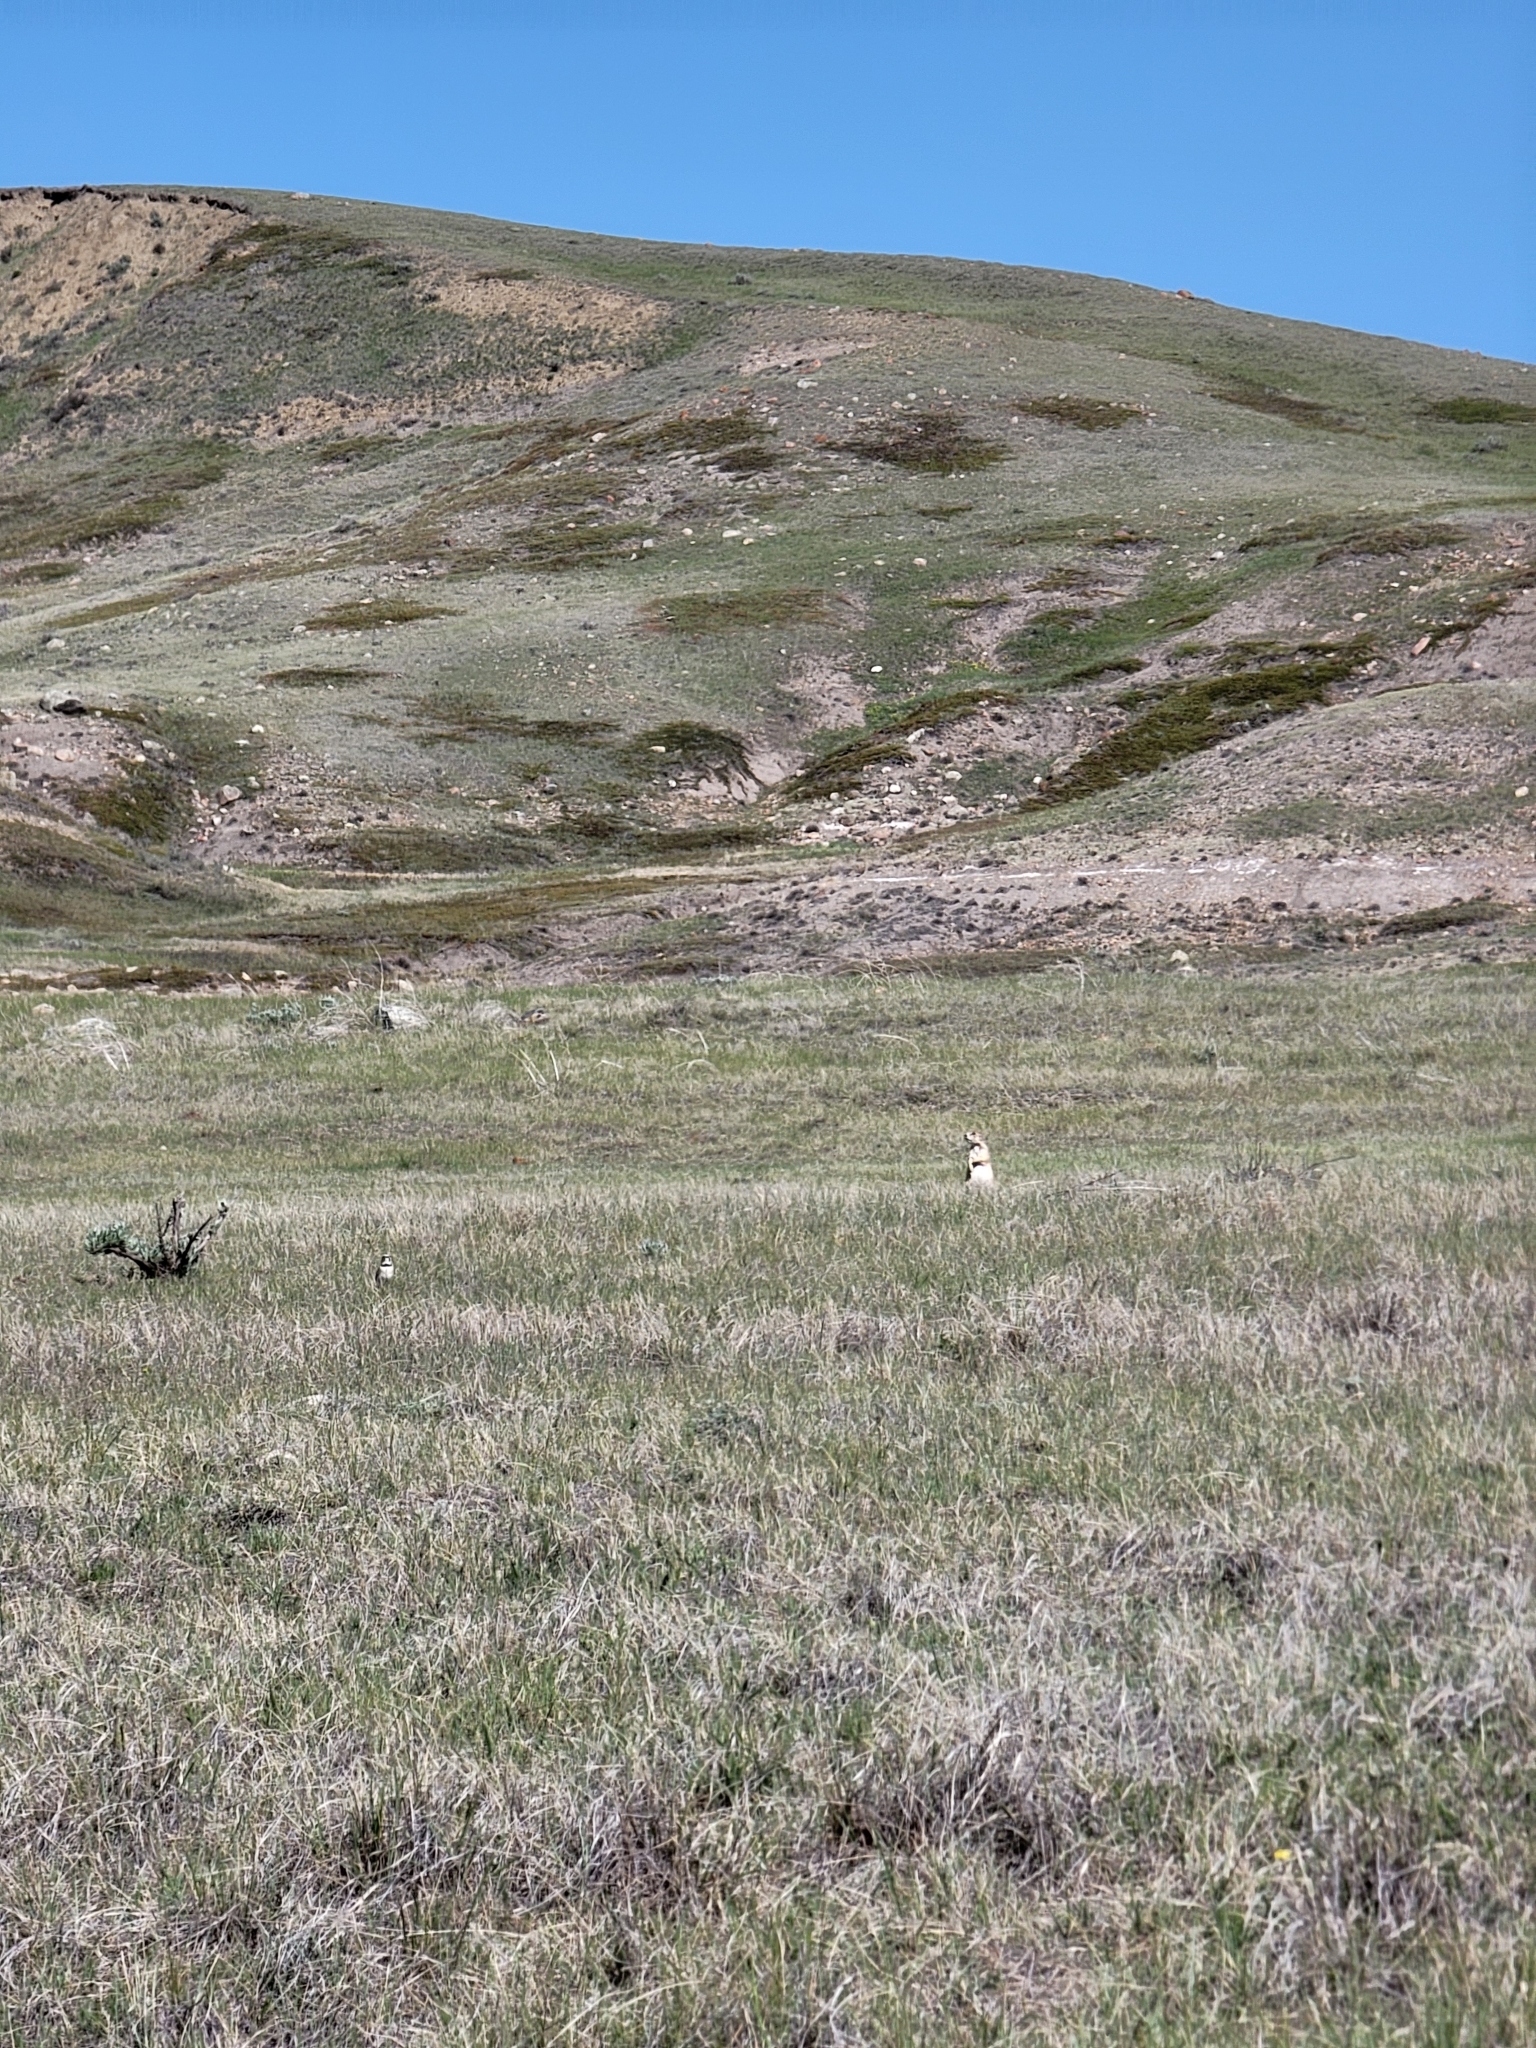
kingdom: Animalia
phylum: Chordata
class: Mammalia
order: Rodentia
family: Sciuridae
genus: Cynomys
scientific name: Cynomys ludovicianus
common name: Black-tailed prairie dog
